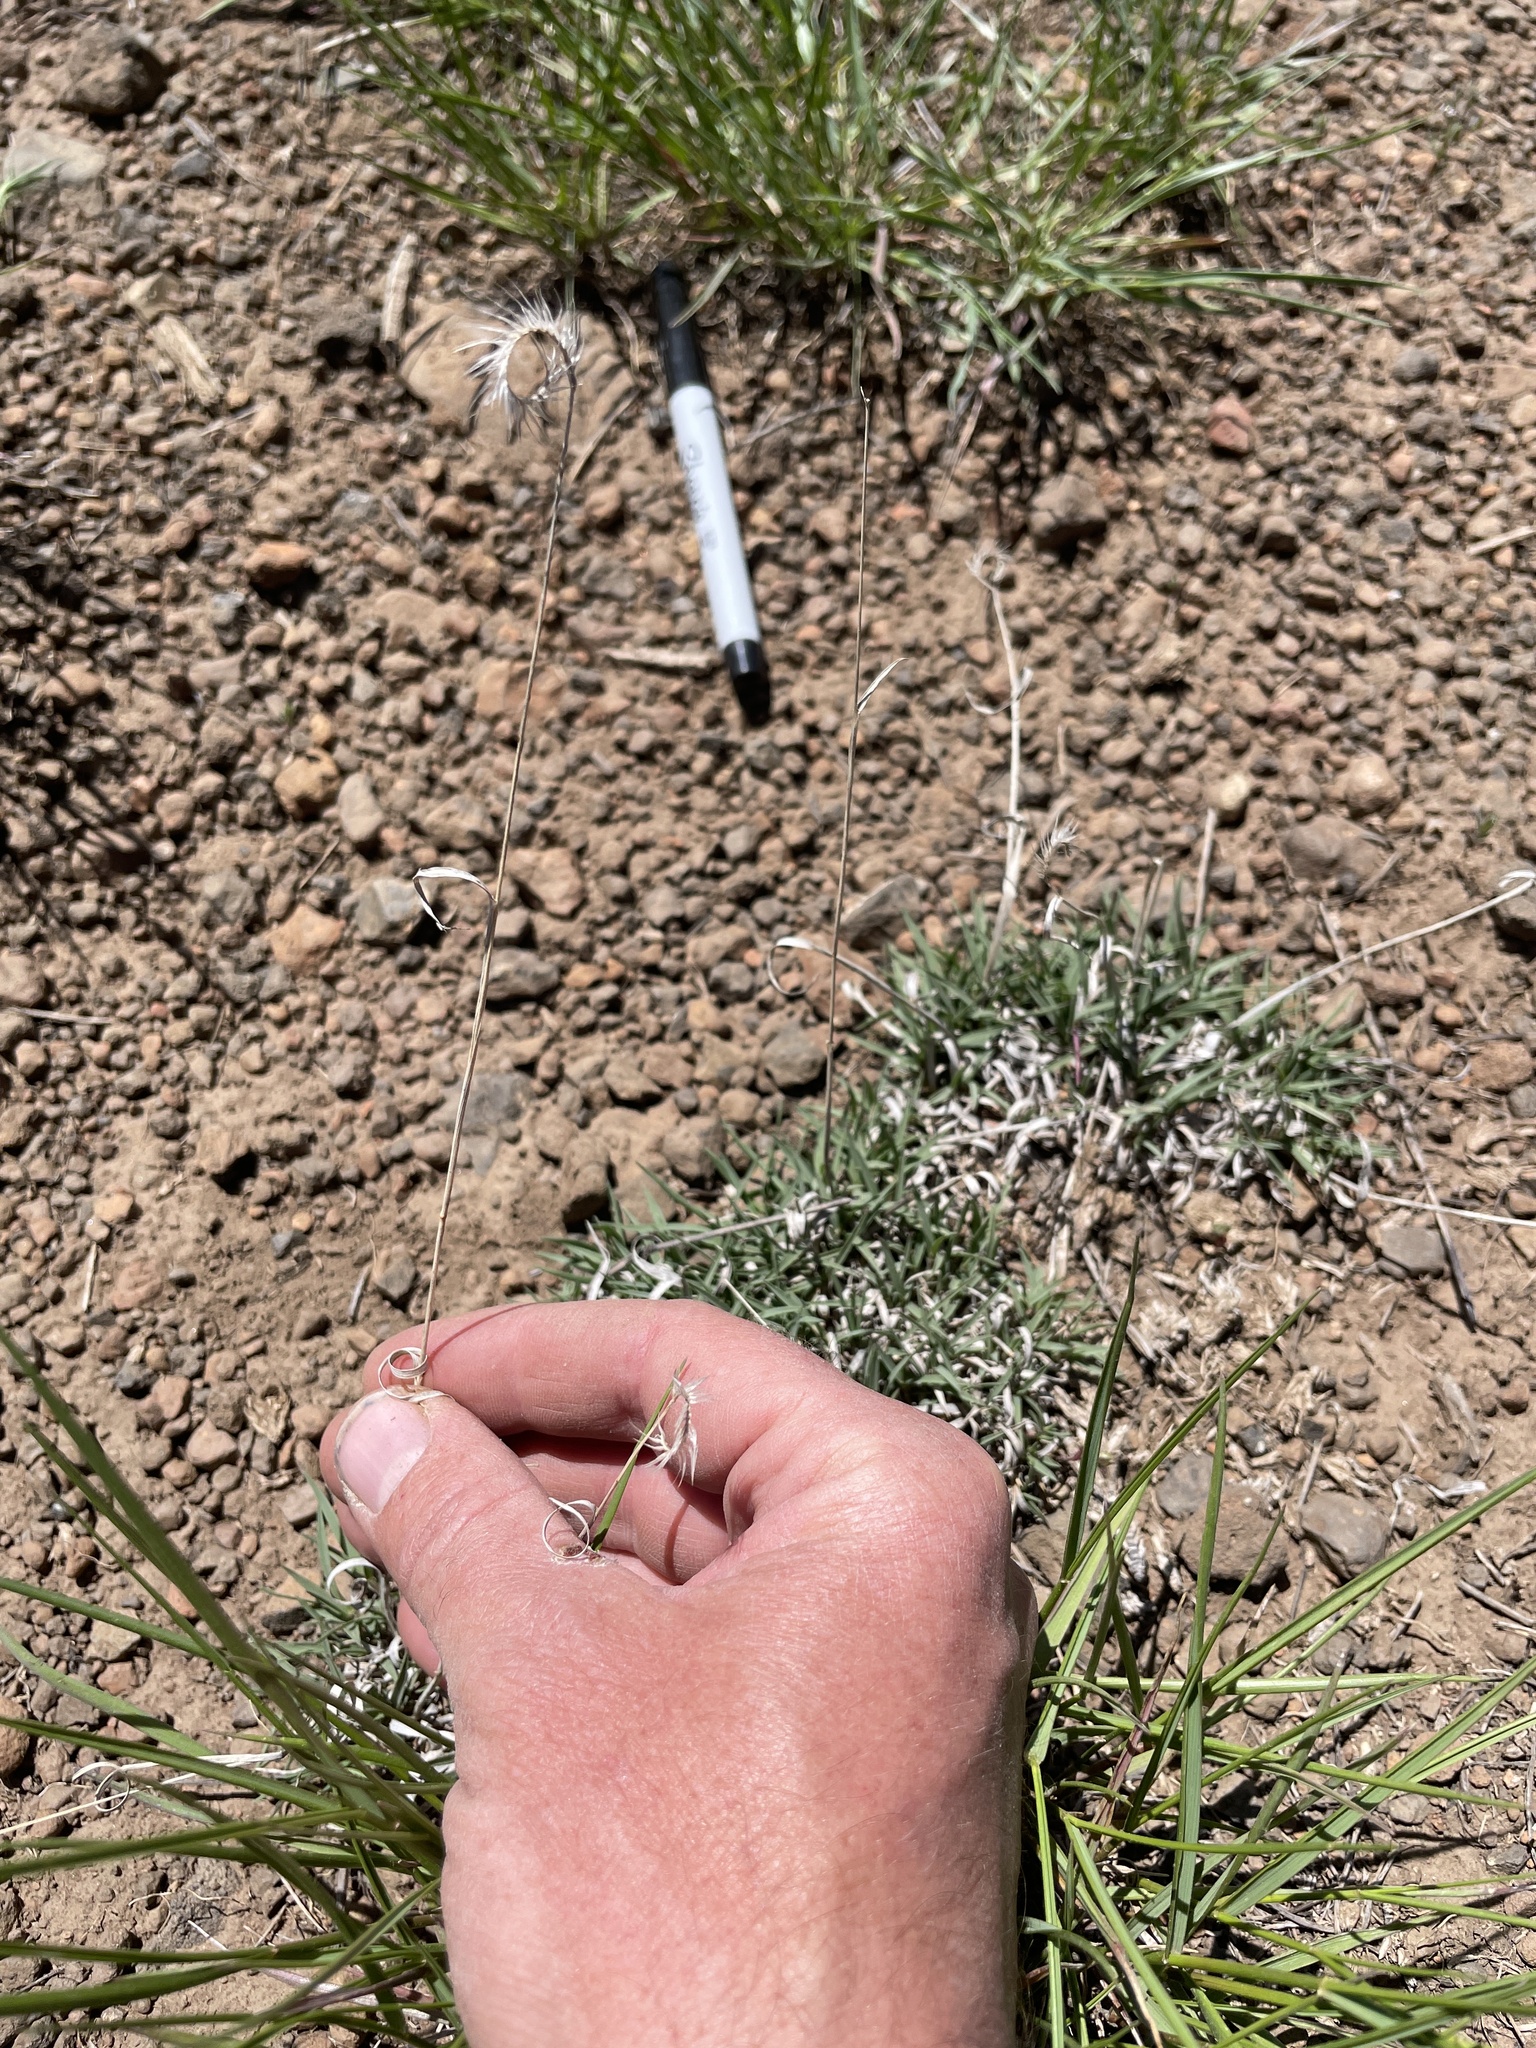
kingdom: Plantae
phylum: Tracheophyta
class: Liliopsida
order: Poales
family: Poaceae
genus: Bouteloua
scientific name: Bouteloua gracilis
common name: Blue grama
